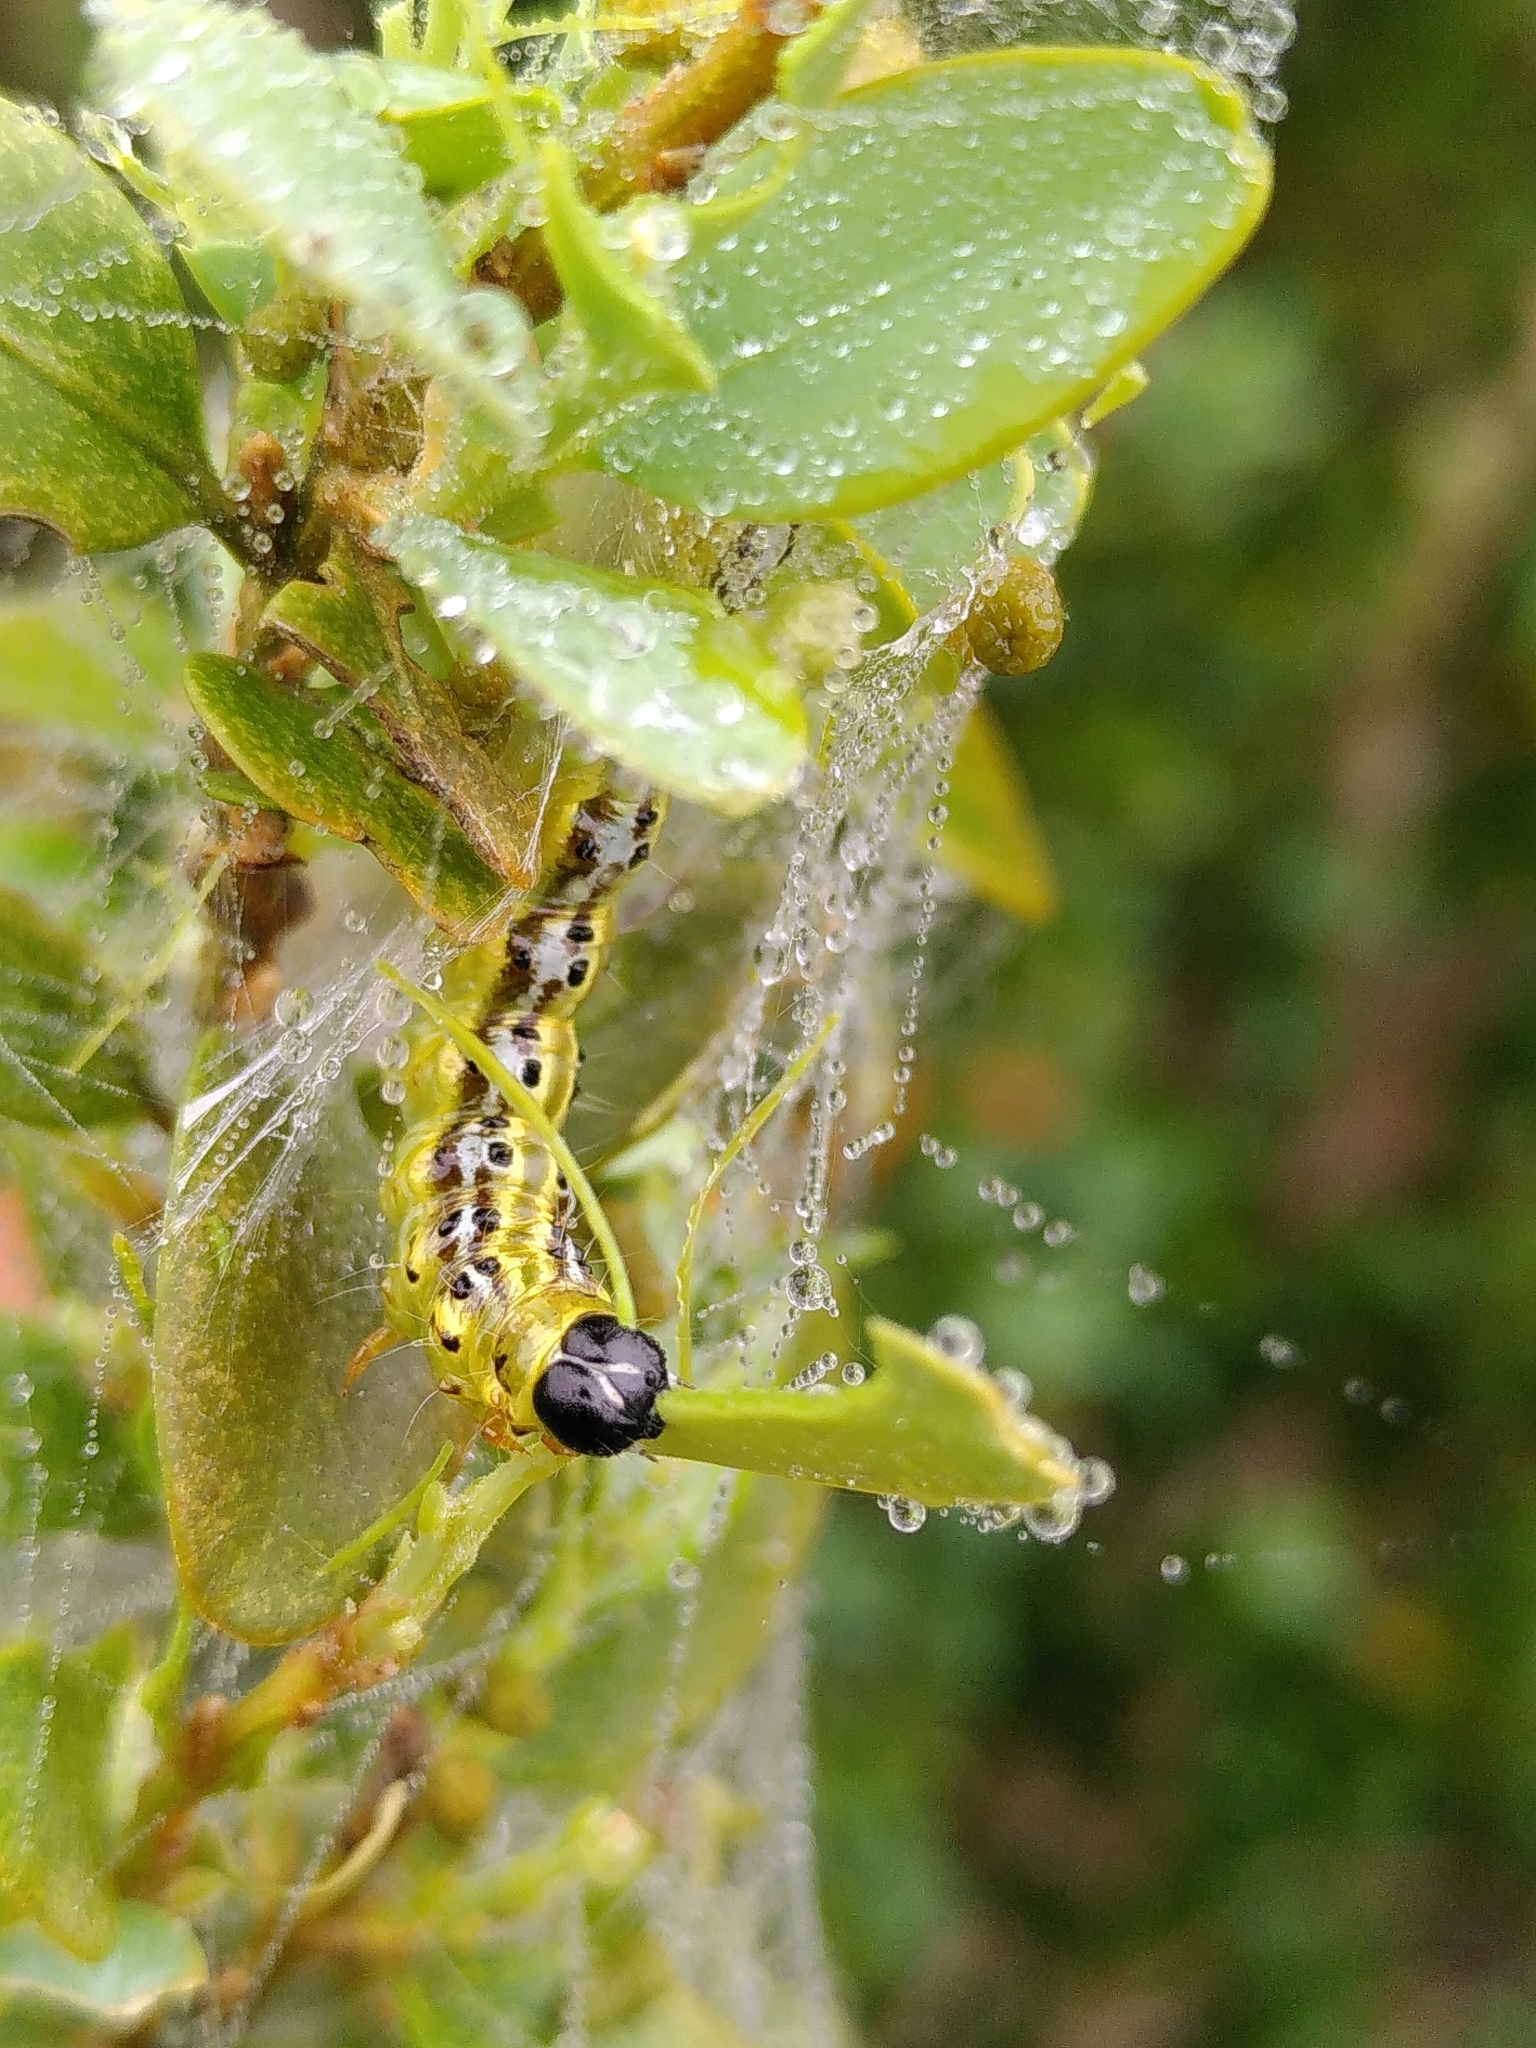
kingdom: Animalia
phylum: Arthropoda
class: Insecta
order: Lepidoptera
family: Crambidae
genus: Cydalima
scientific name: Cydalima perspectalis
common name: Box tree moth
